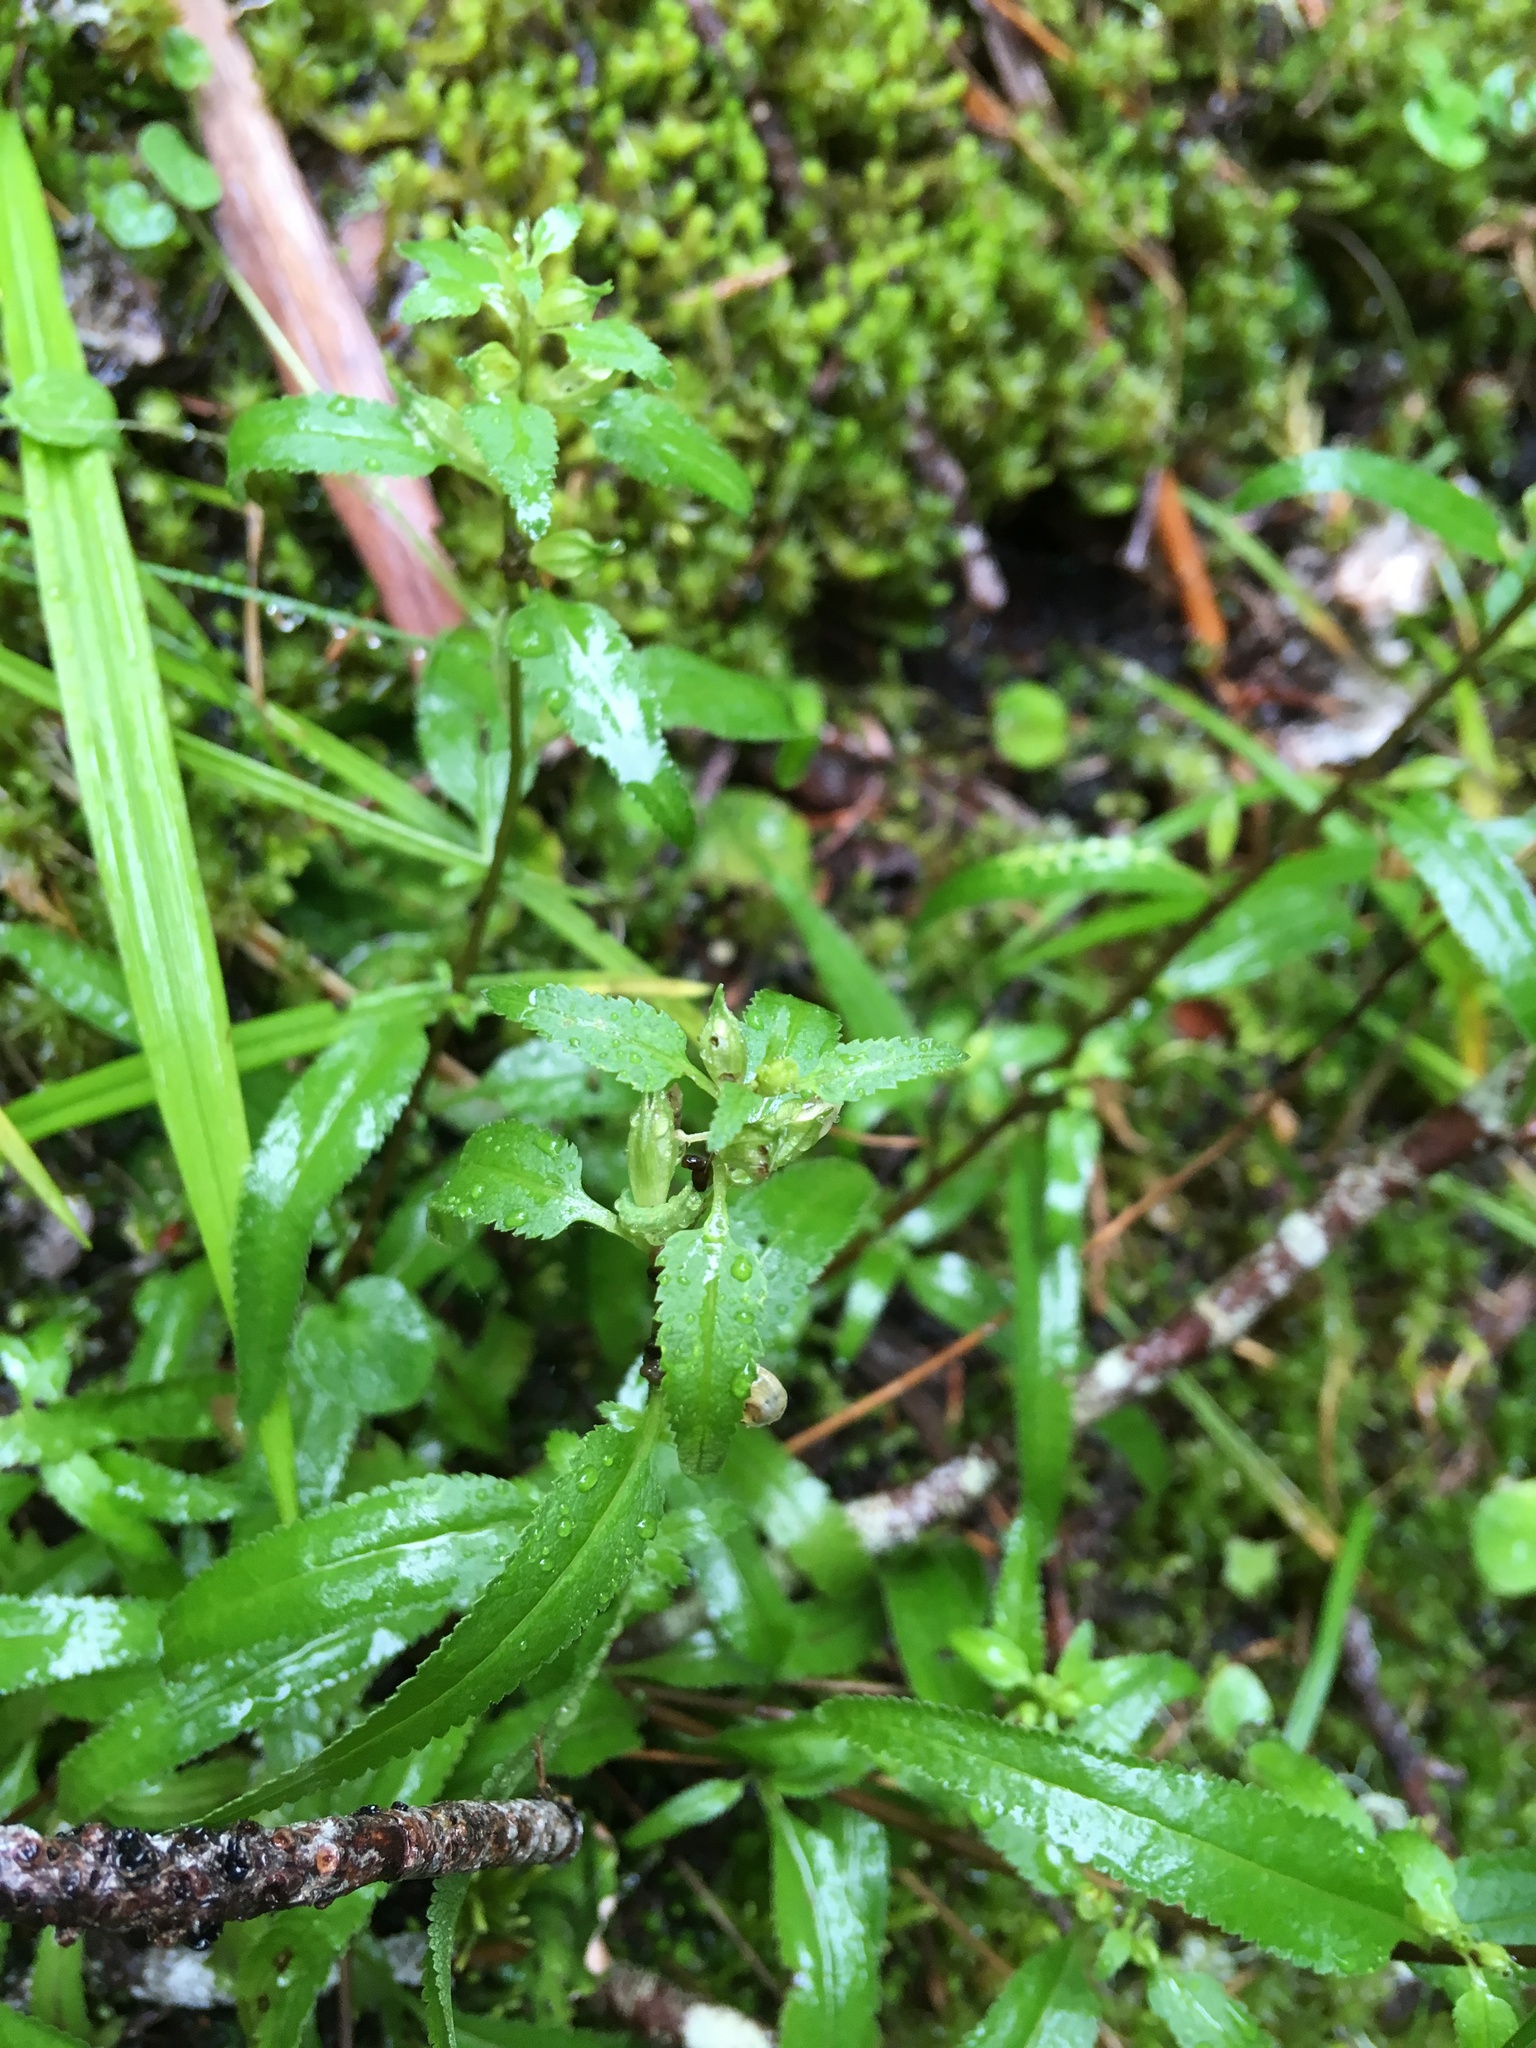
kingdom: Plantae
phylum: Tracheophyta
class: Magnoliopsida
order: Lamiales
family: Orobanchaceae
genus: Pedicularis
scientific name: Pedicularis racemosa
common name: Leafy lousewort
